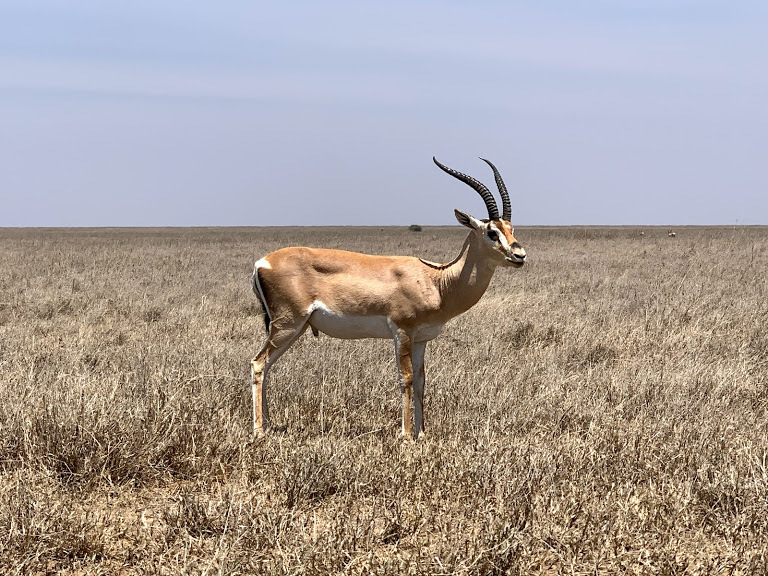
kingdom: Animalia
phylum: Chordata
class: Mammalia
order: Artiodactyla
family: Bovidae
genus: Nanger
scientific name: Nanger granti
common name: Grant's gazelle
